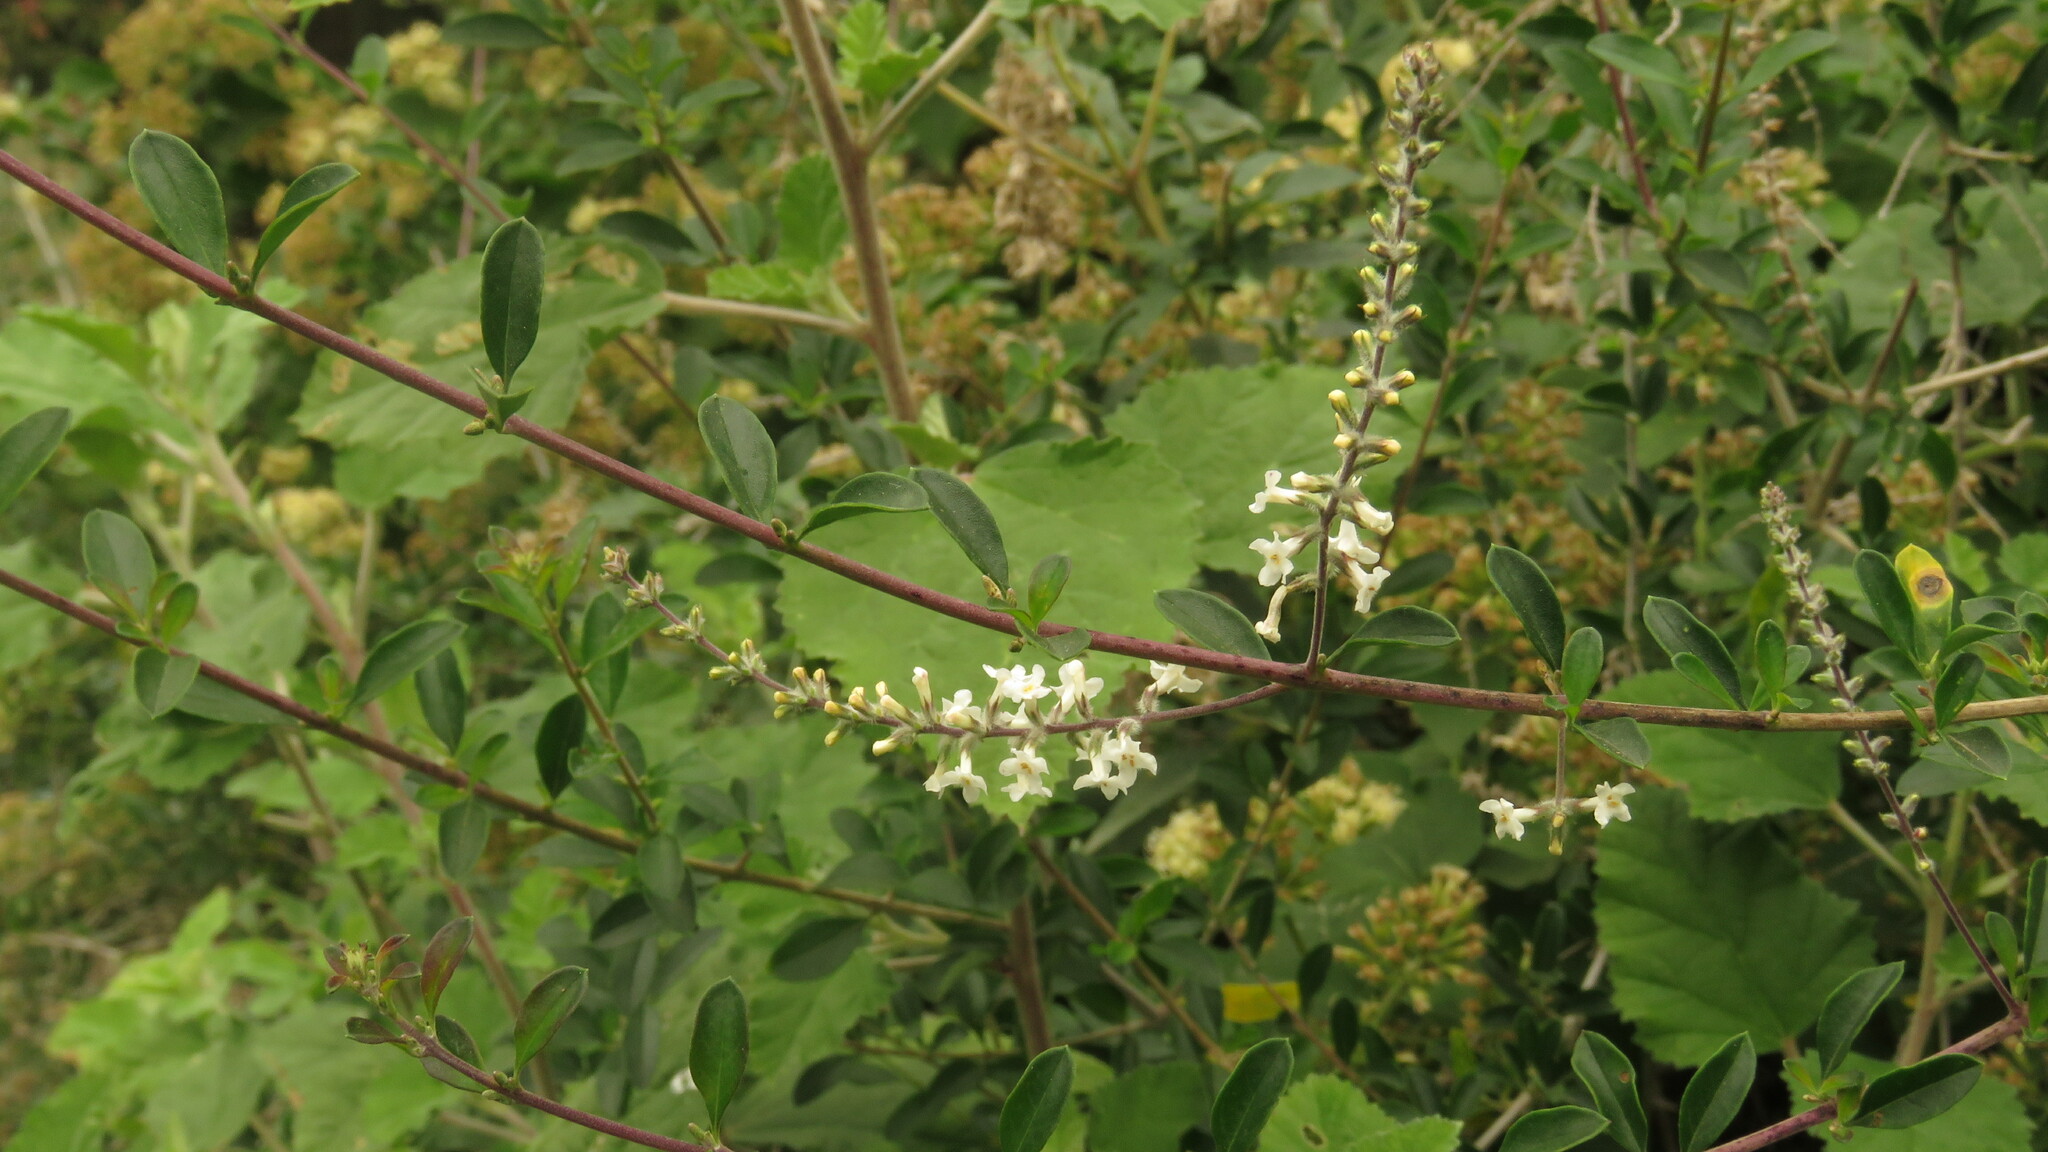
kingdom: Plantae
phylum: Tracheophyta
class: Magnoliopsida
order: Lamiales
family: Verbenaceae
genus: Aloysia
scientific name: Aloysia gratissima
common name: Common bee-brush
